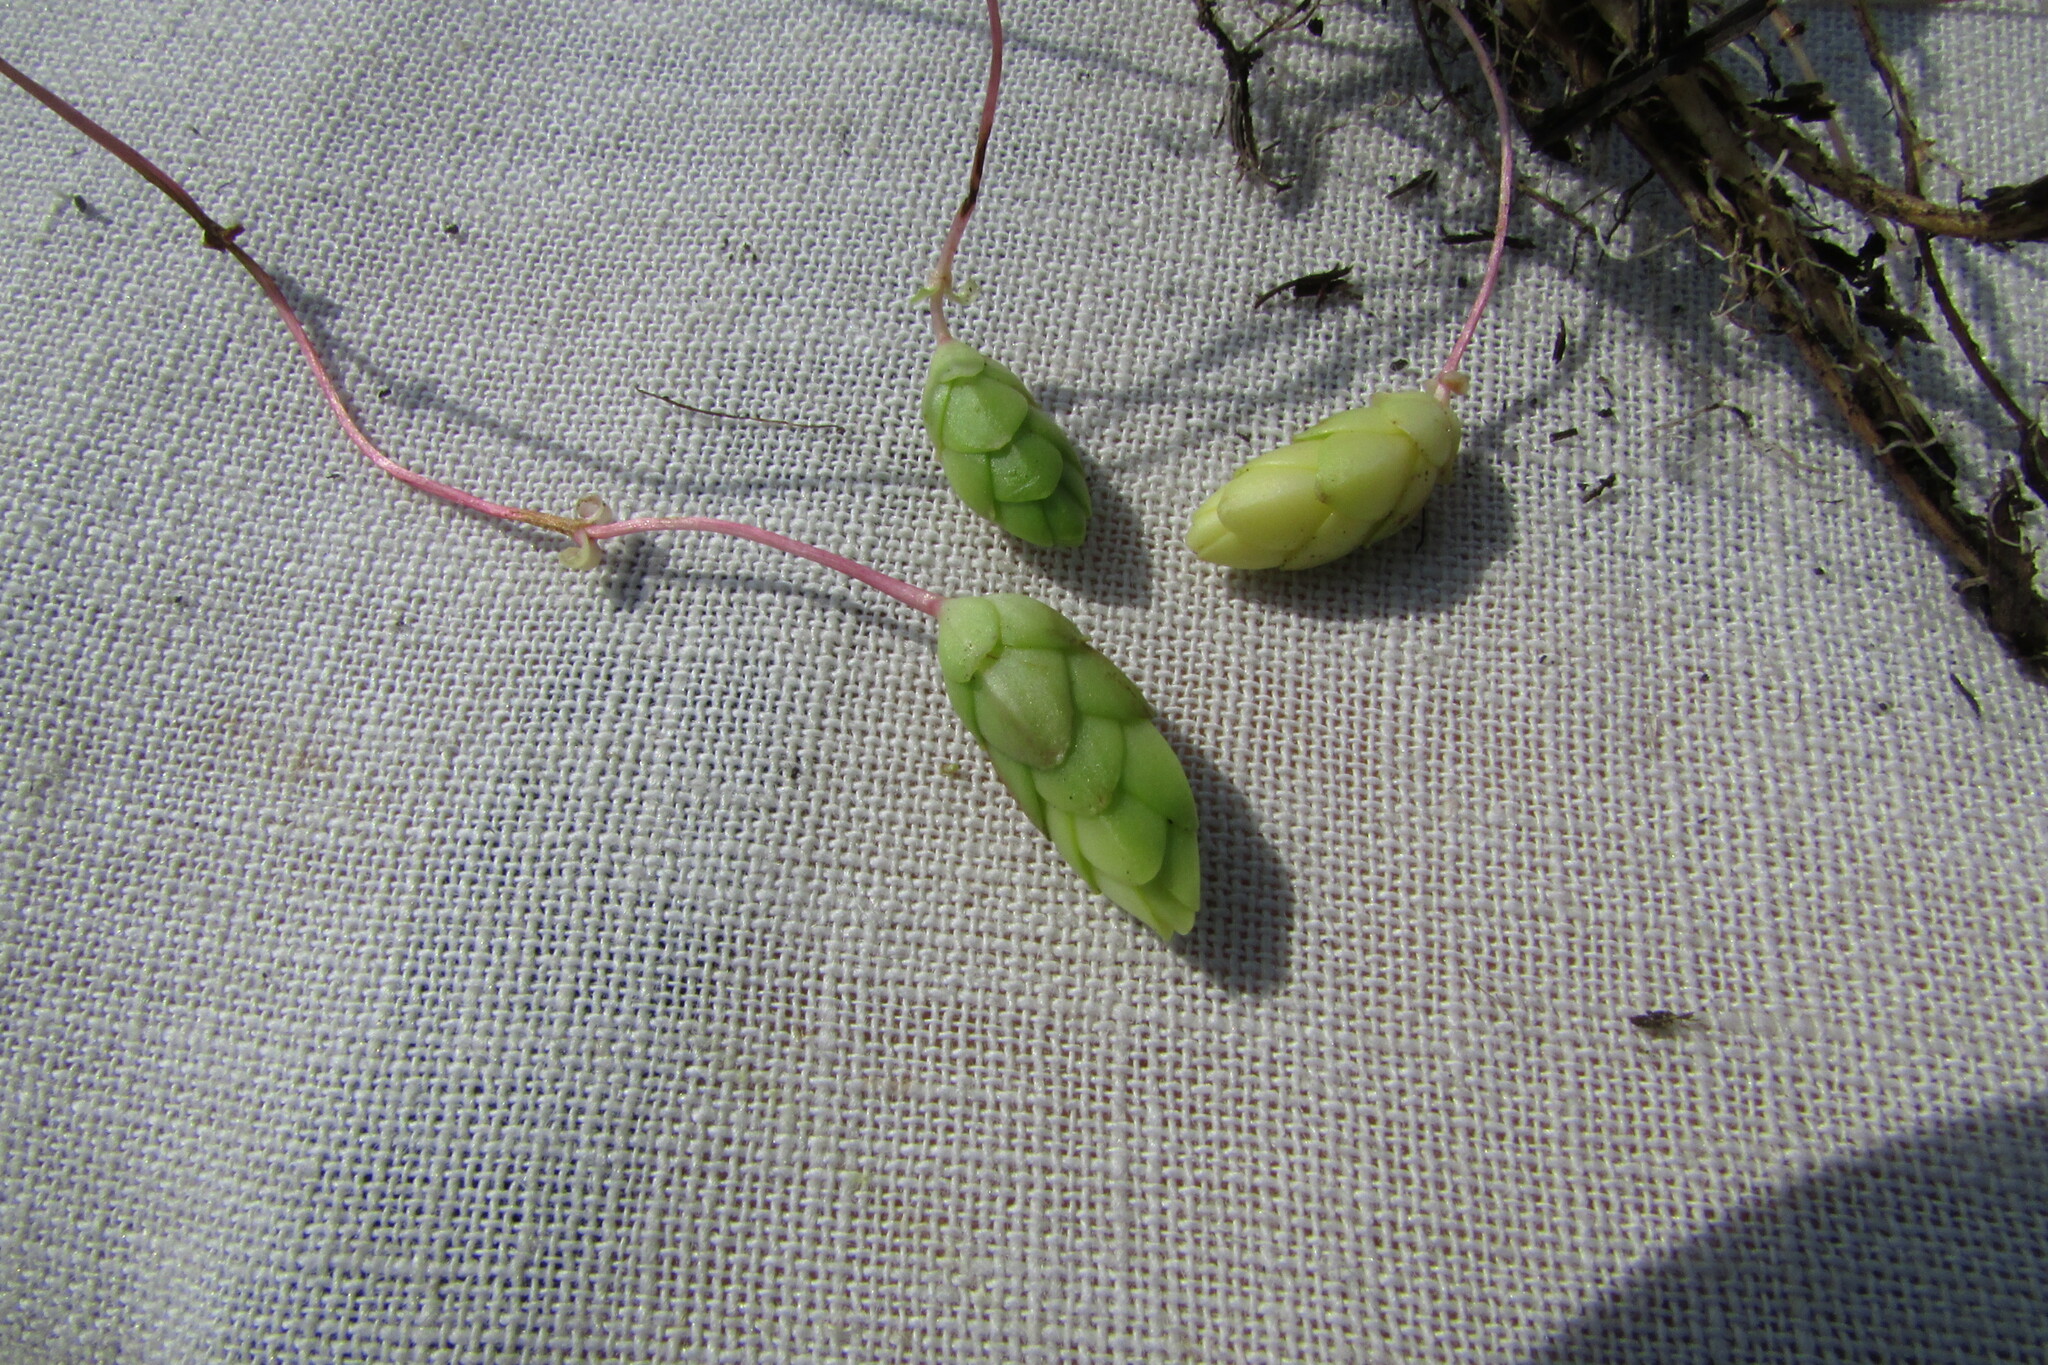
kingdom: Plantae
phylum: Tracheophyta
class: Magnoliopsida
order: Myrtales
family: Onagraceae
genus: Epilobium
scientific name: Epilobium palustre
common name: Marsh willowherb
